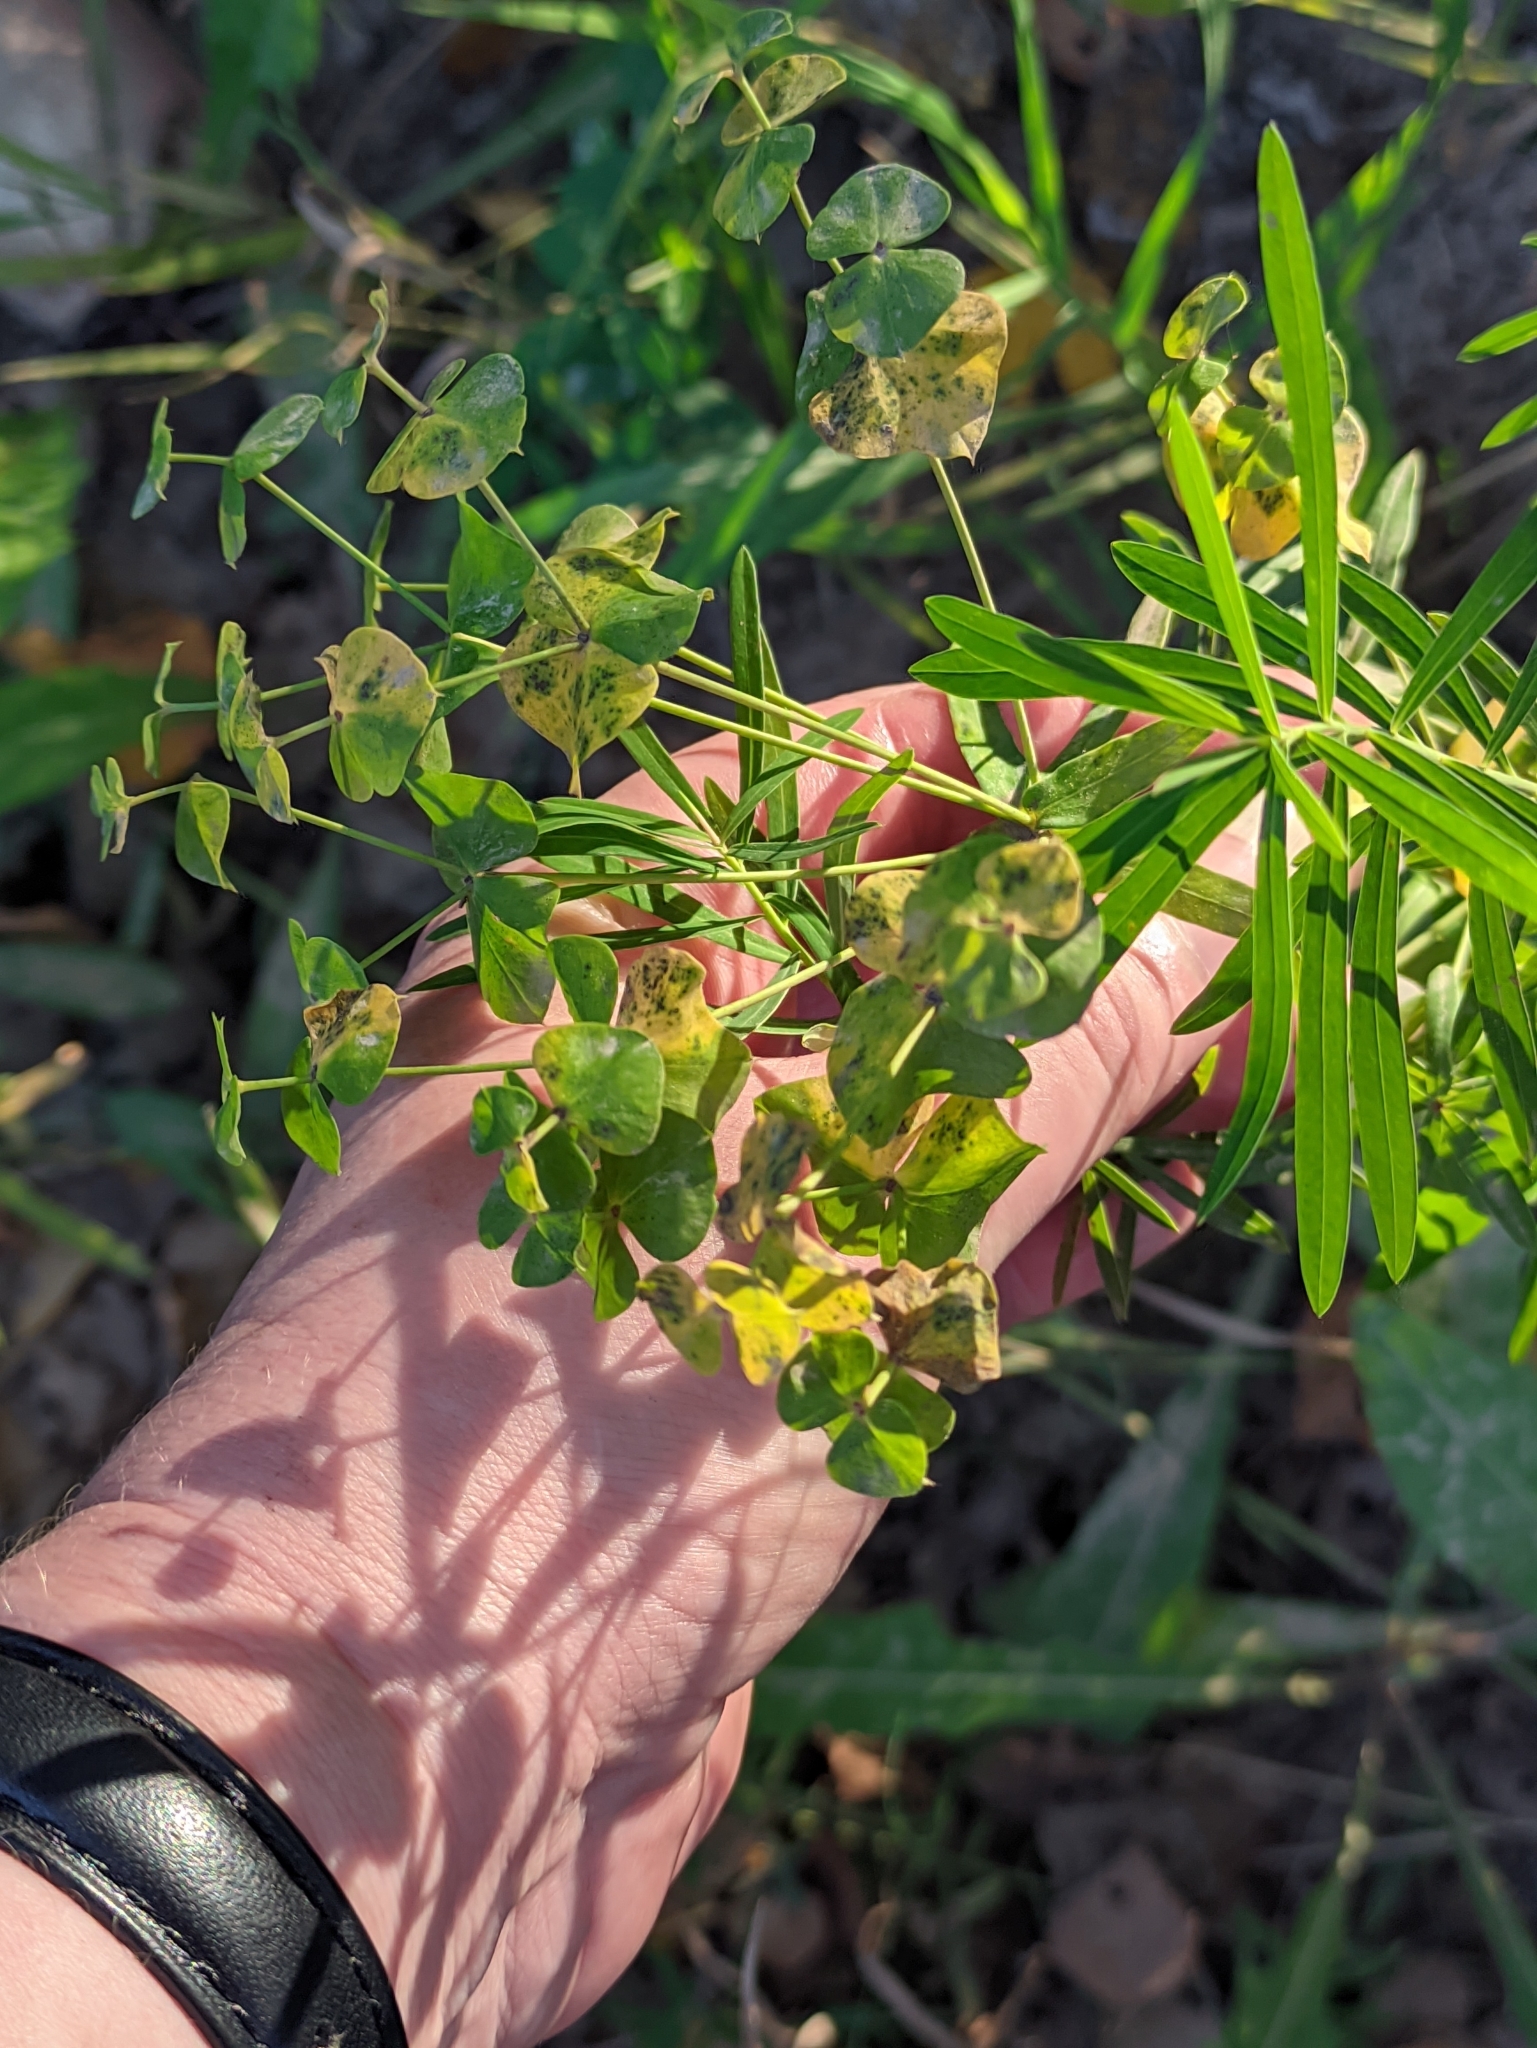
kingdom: Plantae
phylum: Tracheophyta
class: Magnoliopsida
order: Malpighiales
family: Euphorbiaceae
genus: Euphorbia
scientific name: Euphorbia virgata
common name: Leafy spurge
